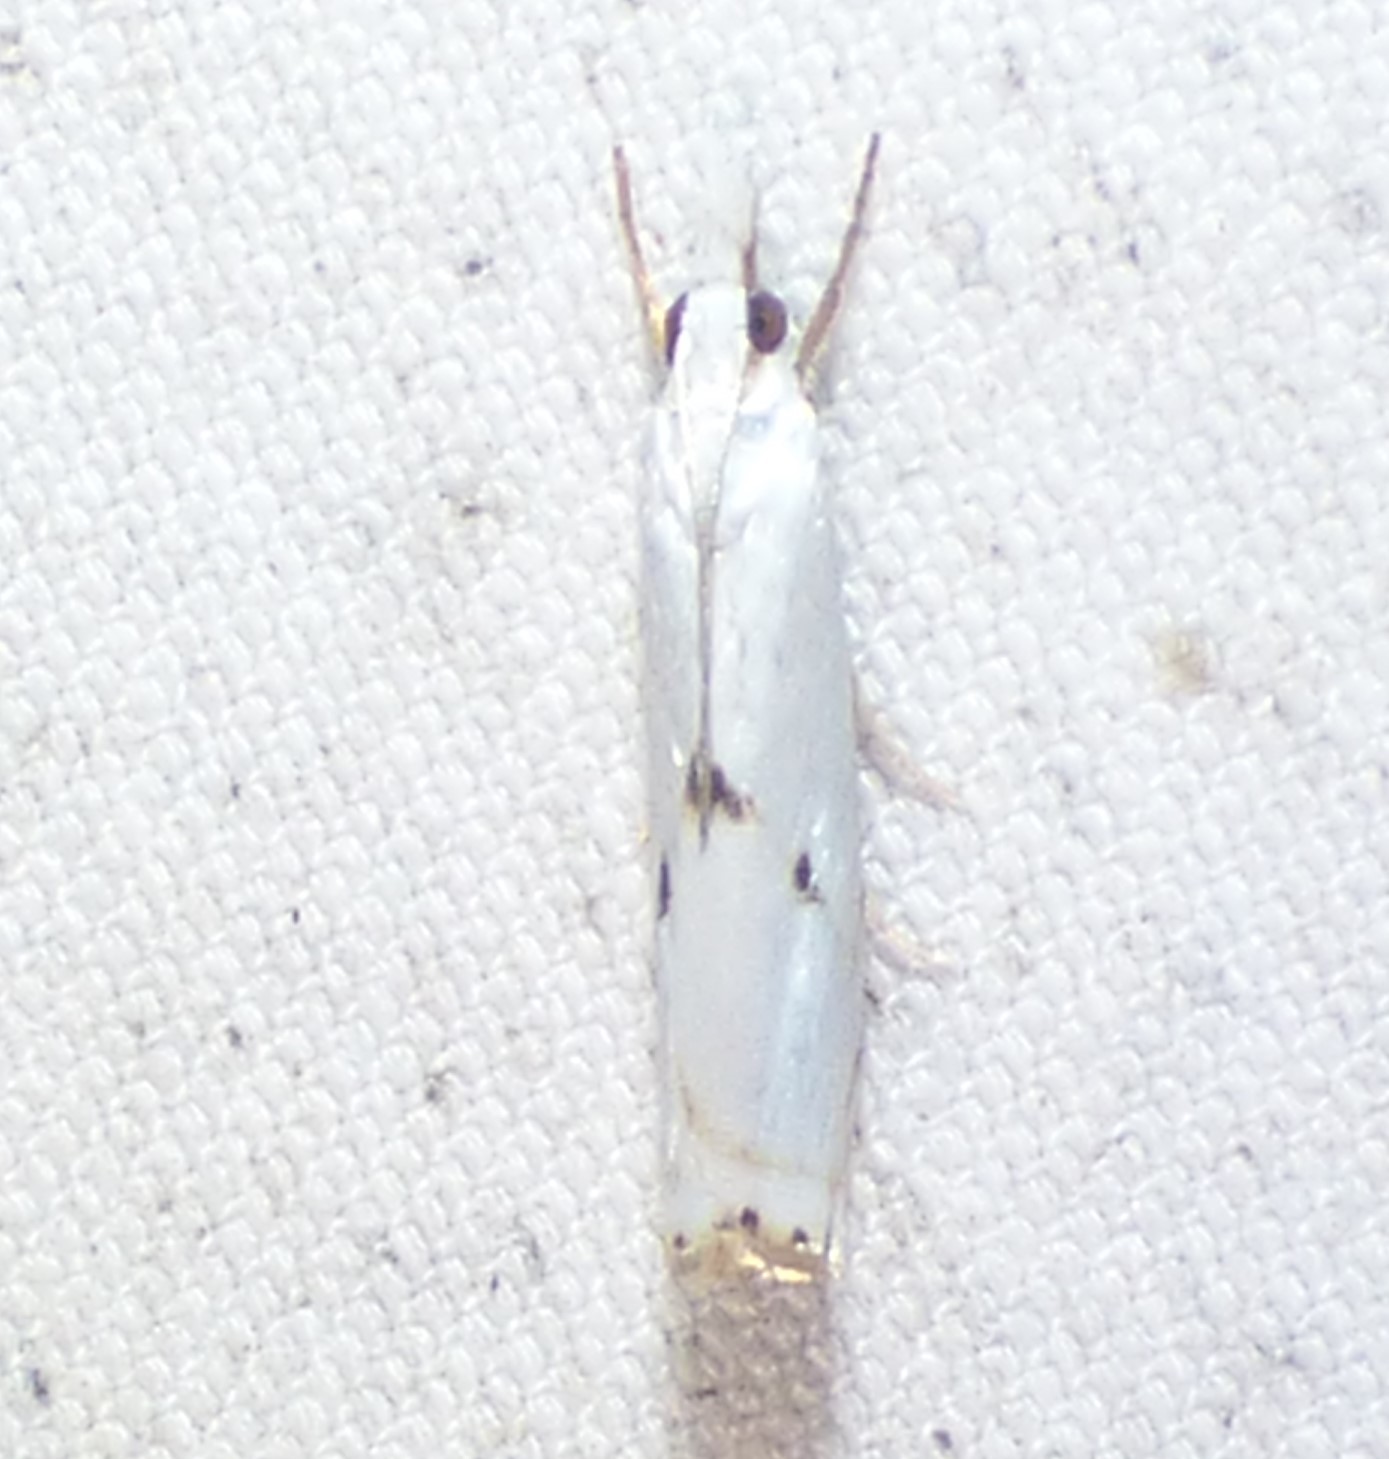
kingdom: Animalia
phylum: Arthropoda
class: Insecta
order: Lepidoptera
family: Crambidae
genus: Microcrambus
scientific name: Microcrambus biguttellus
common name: Gold-stripe grass-veneer moth
